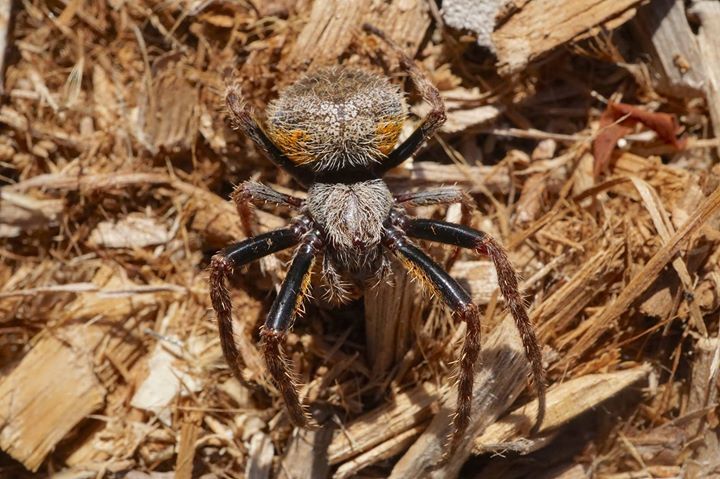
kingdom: Animalia
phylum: Arthropoda
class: Arachnida
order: Araneae
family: Araneidae
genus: Eriophora
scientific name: Eriophora ravilla
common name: Orb weavers
